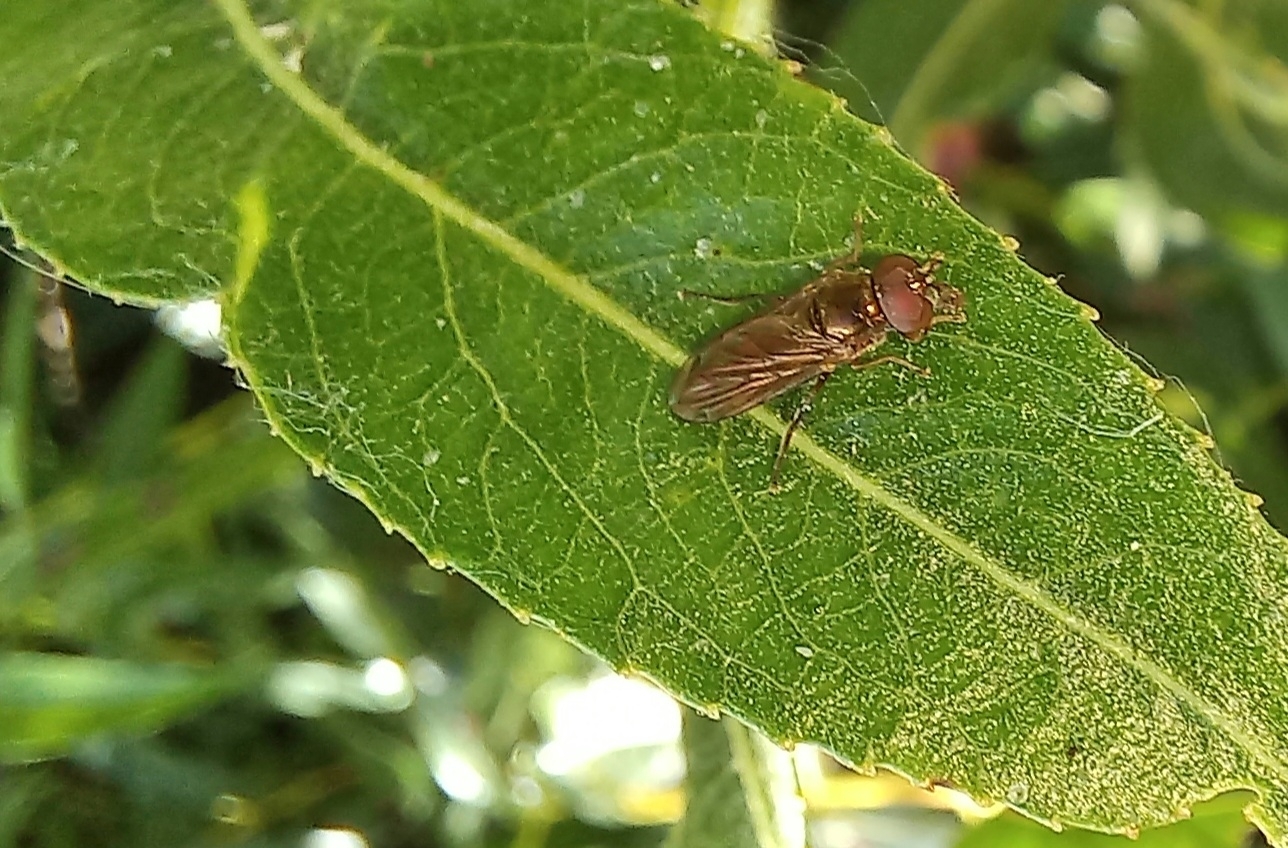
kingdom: Animalia
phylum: Arthropoda
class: Insecta
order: Diptera
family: Syrphidae
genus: Melanostoma
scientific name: Melanostoma fasciatum
